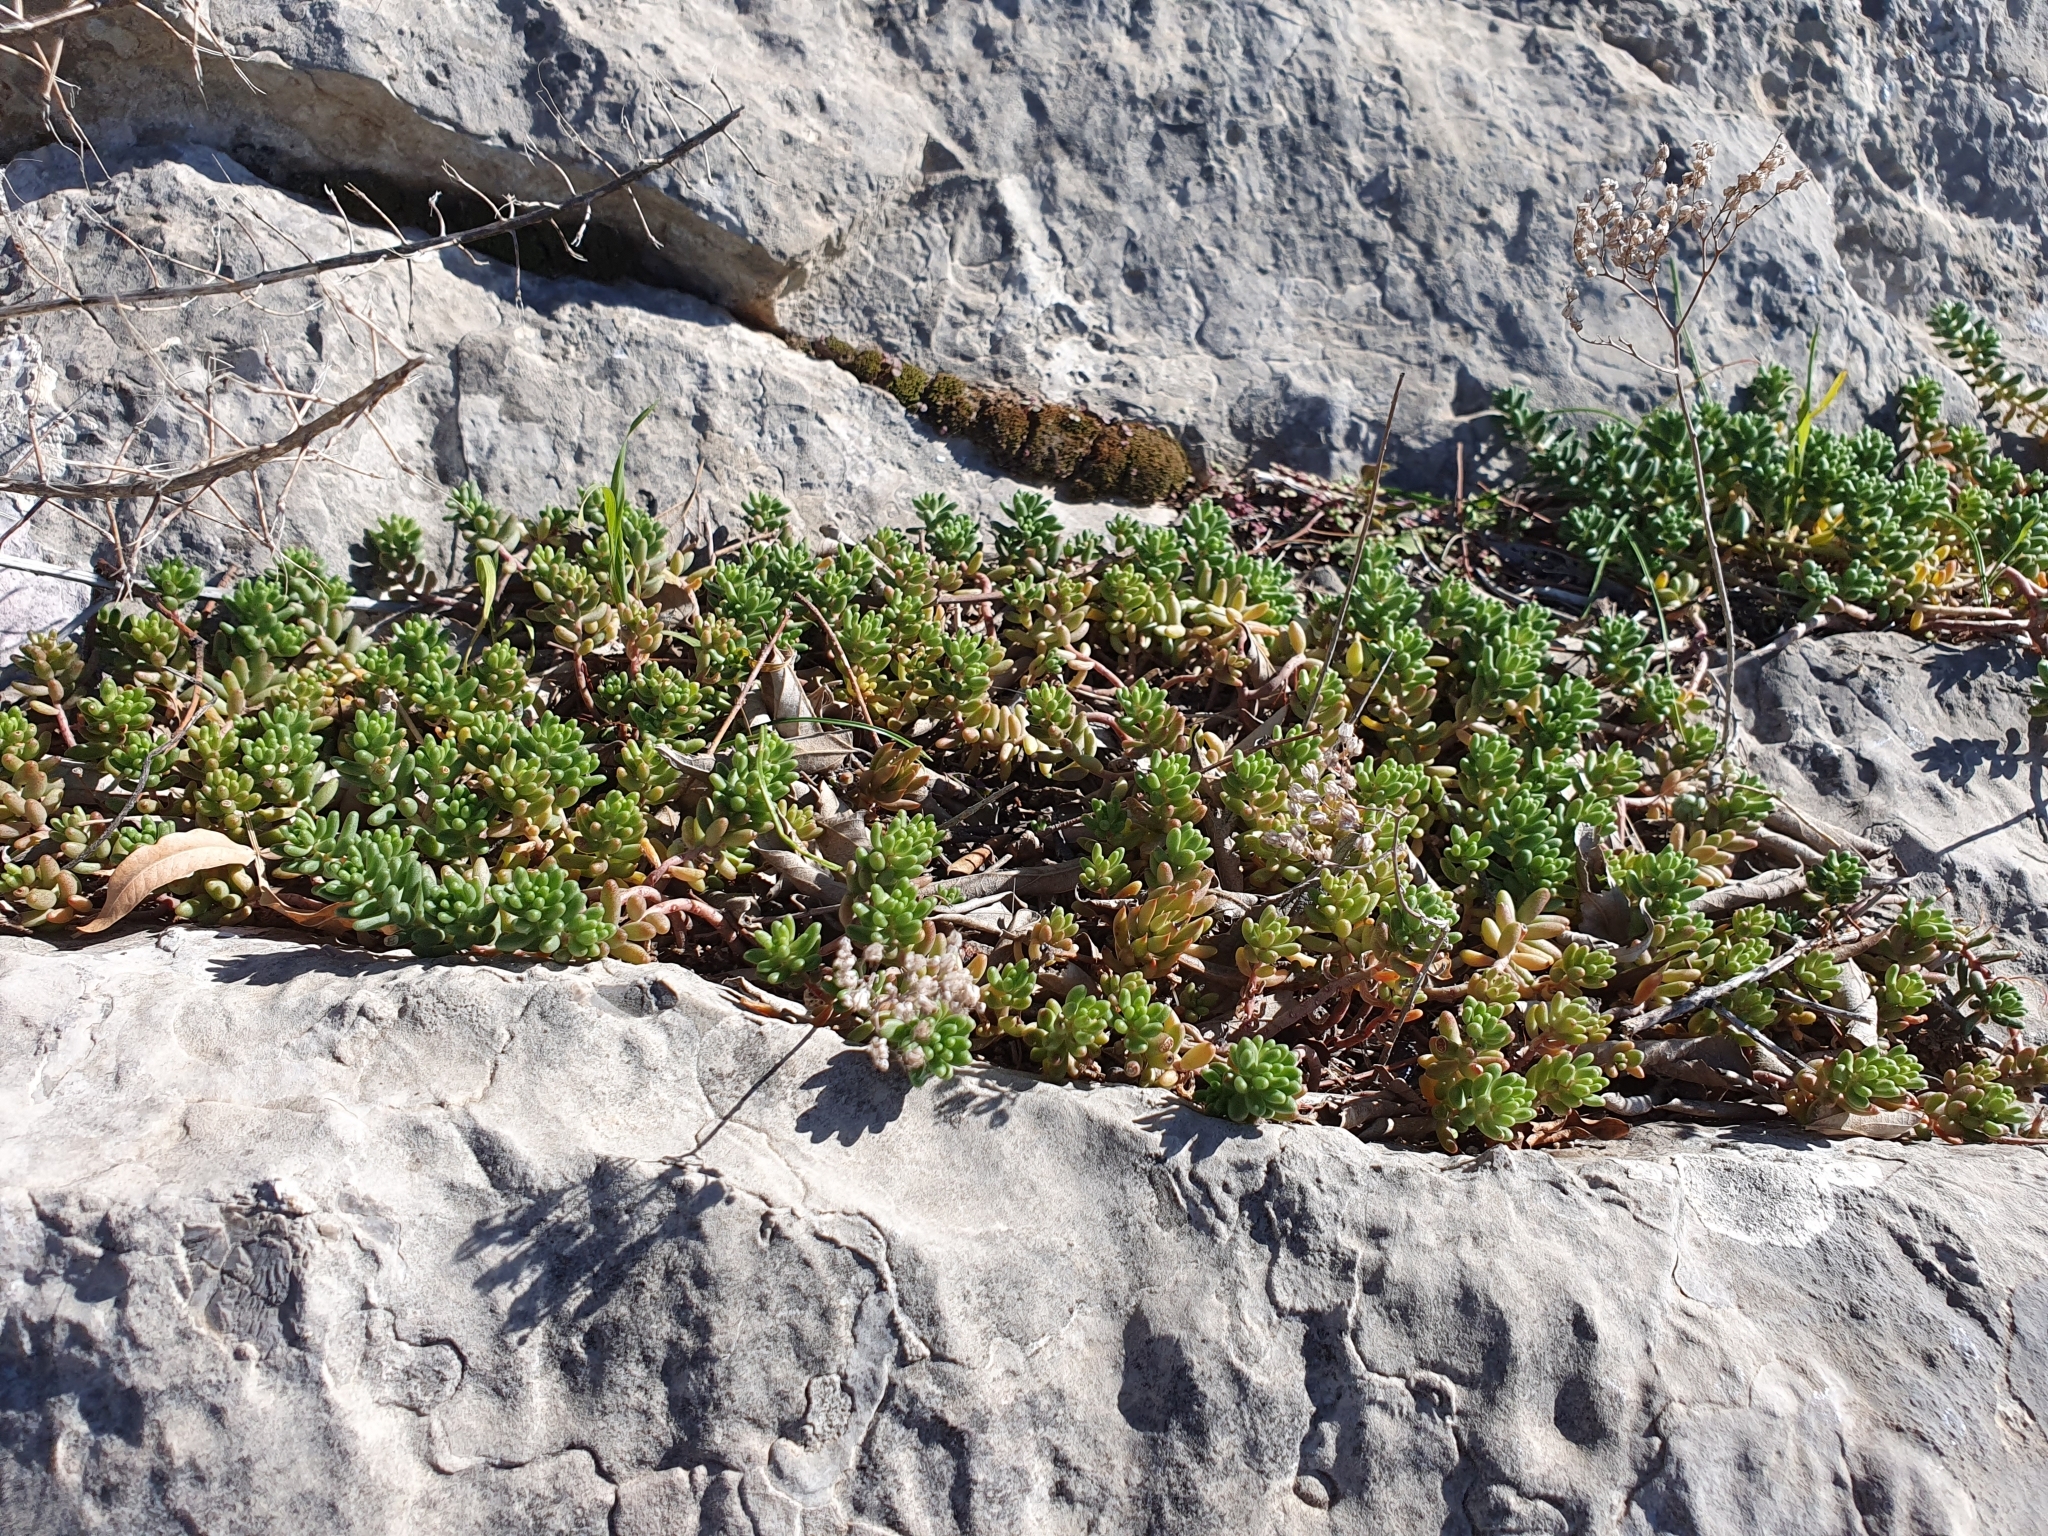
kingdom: Plantae
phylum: Tracheophyta
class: Magnoliopsida
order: Saxifragales
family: Crassulaceae
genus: Sedum
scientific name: Sedum album
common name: White stonecrop
